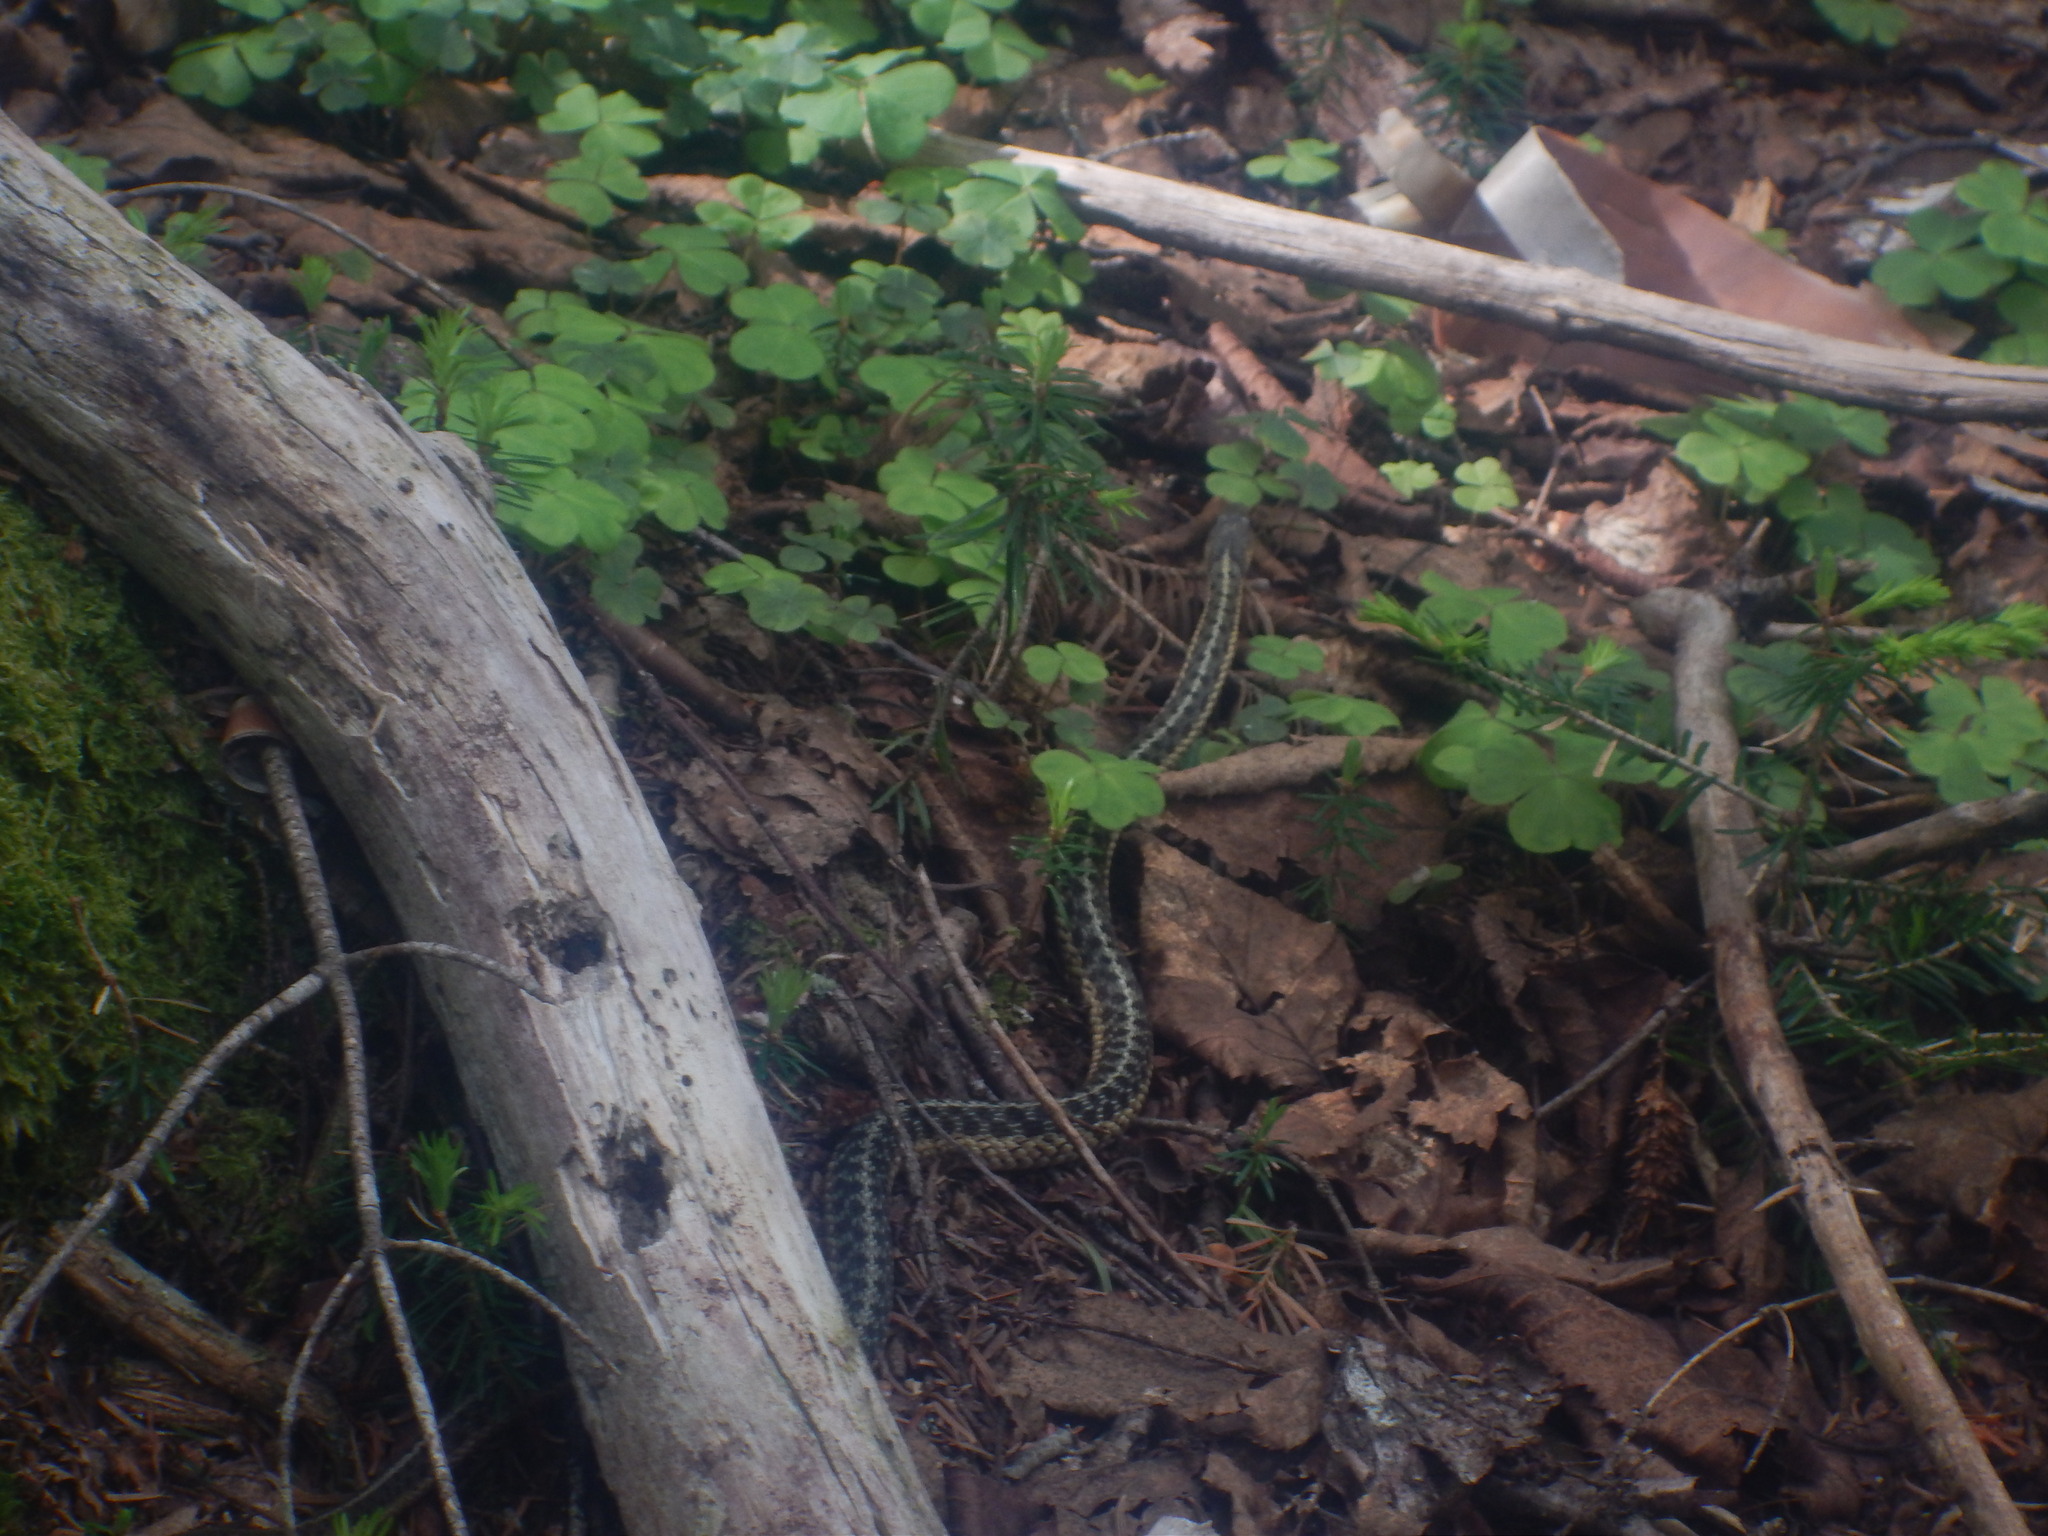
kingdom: Animalia
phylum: Chordata
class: Squamata
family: Colubridae
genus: Thamnophis
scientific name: Thamnophis sirtalis
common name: Common garter snake
